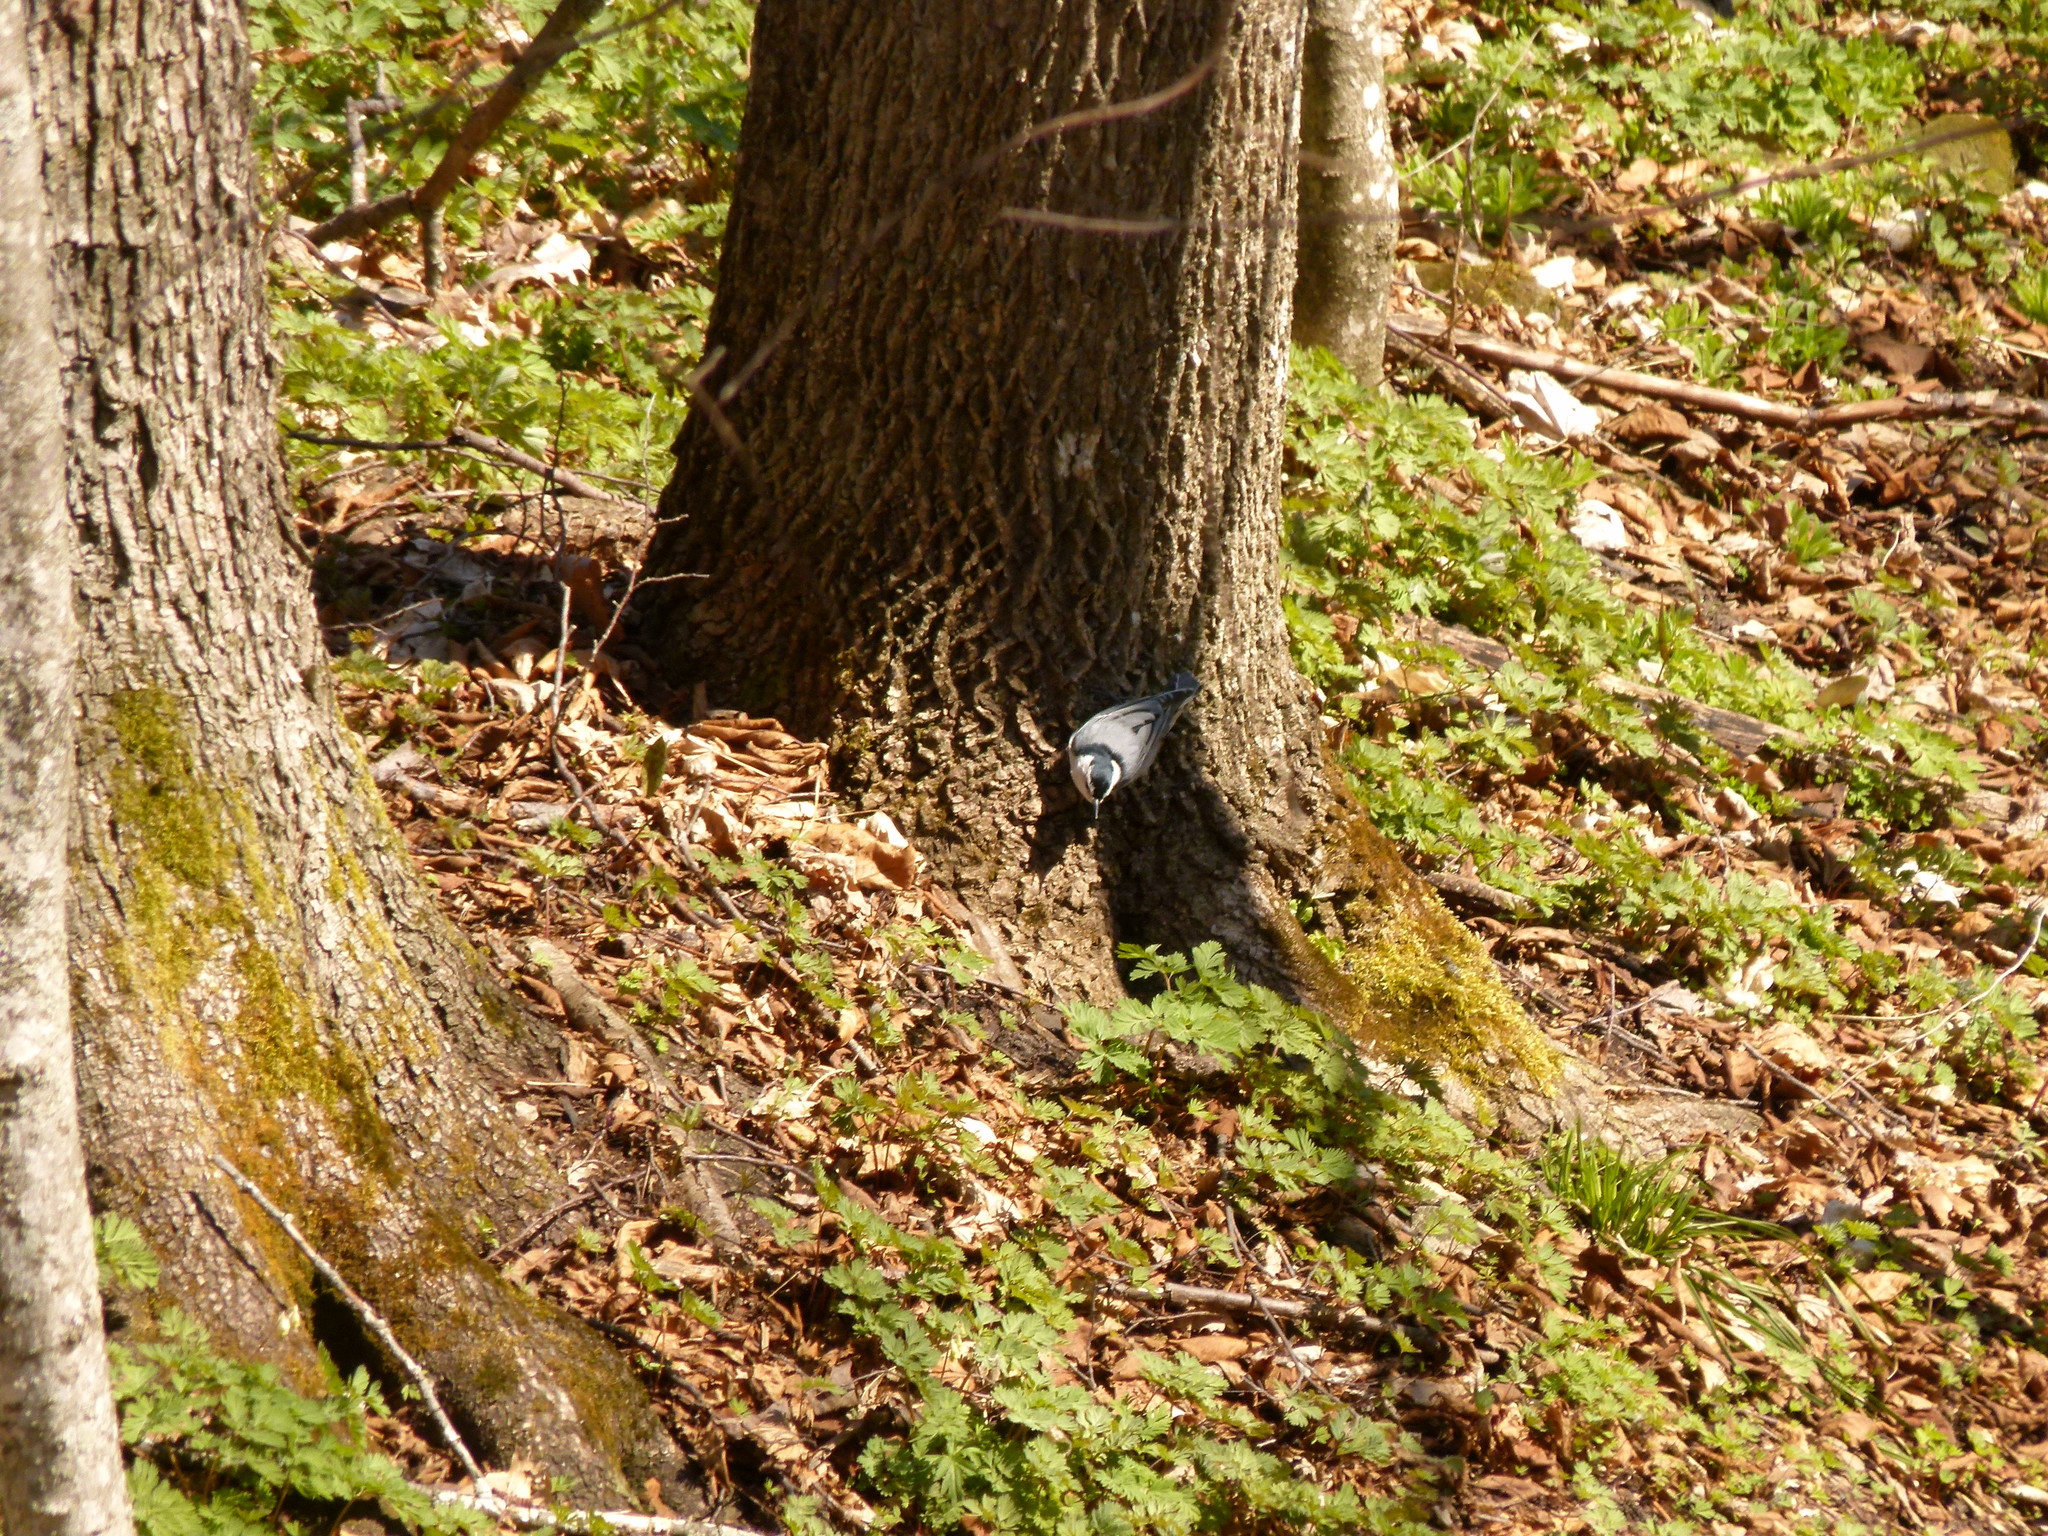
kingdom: Animalia
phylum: Chordata
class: Aves
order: Passeriformes
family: Sittidae
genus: Sitta
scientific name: Sitta carolinensis
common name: White-breasted nuthatch
